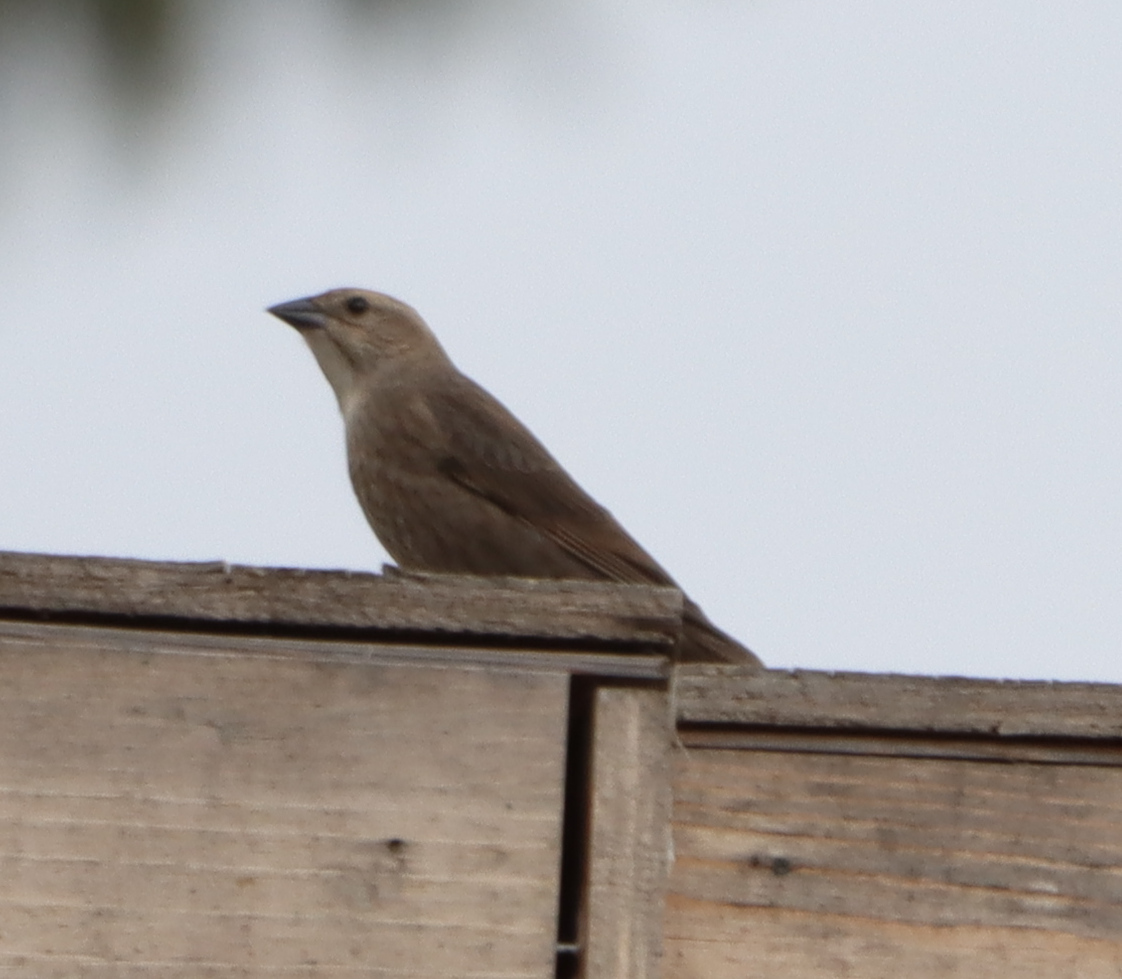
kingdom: Animalia
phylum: Chordata
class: Aves
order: Passeriformes
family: Icteridae
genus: Molothrus
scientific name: Molothrus ater
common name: Brown-headed cowbird
